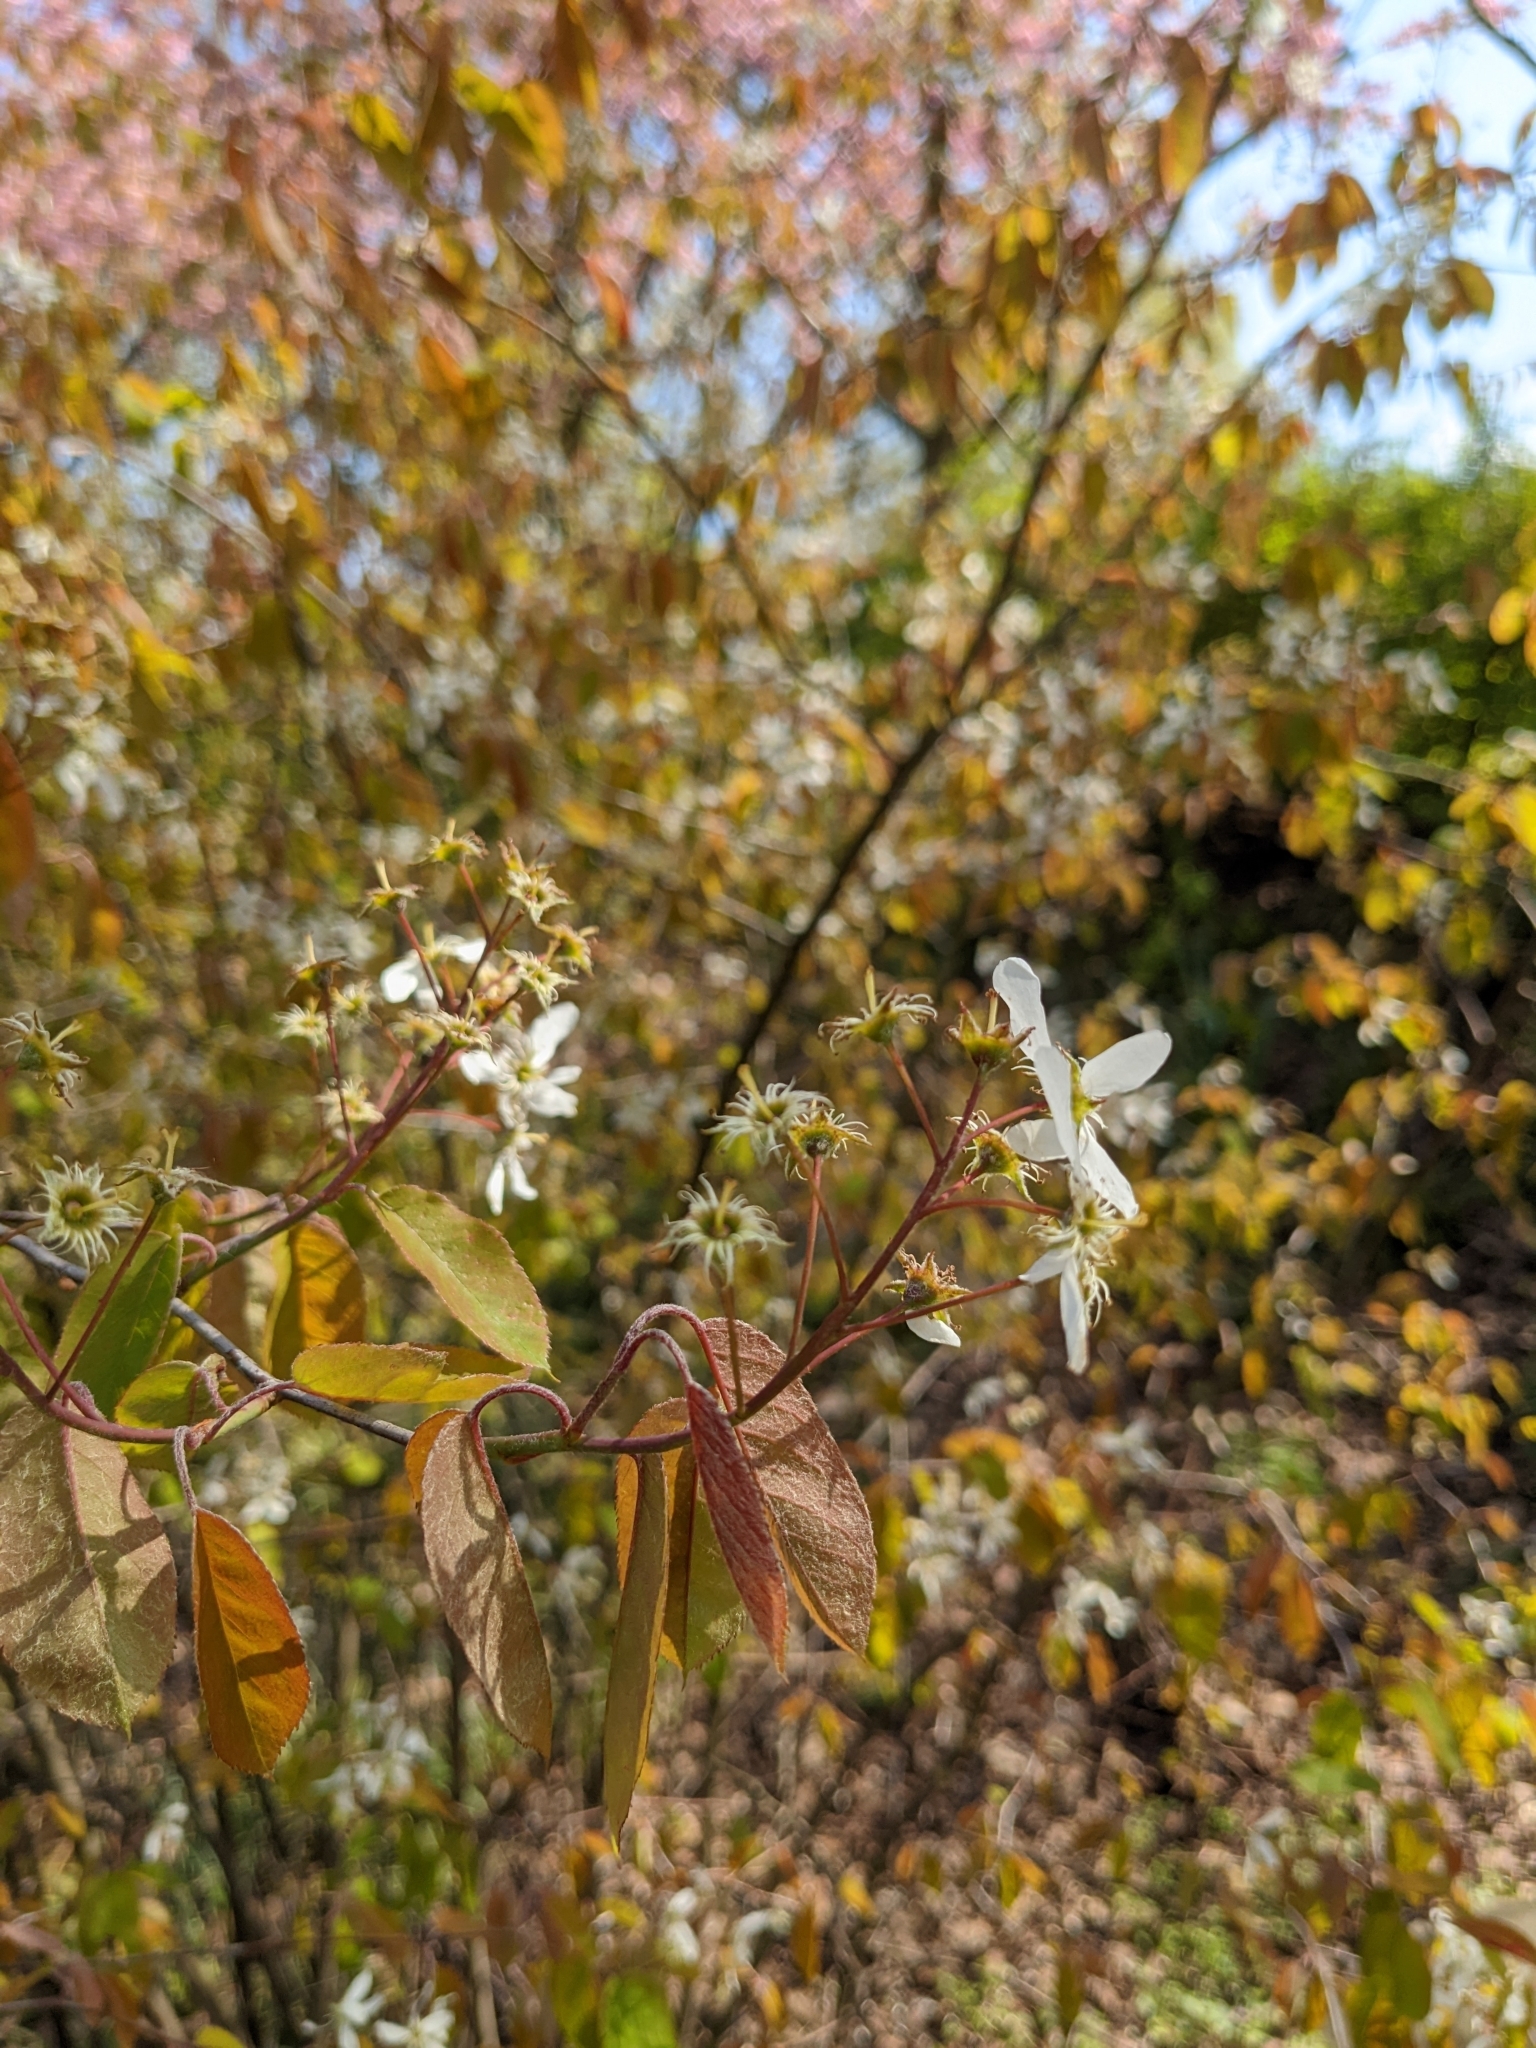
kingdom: Plantae
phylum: Tracheophyta
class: Magnoliopsida
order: Rosales
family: Rosaceae
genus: Amelanchier
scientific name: Amelanchier lamarckii
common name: Juneberry
